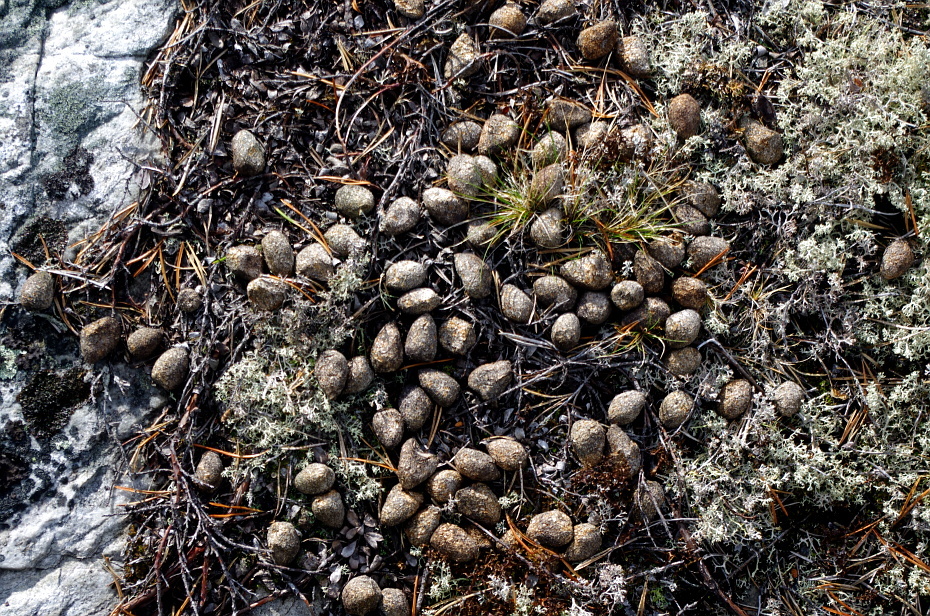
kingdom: Animalia
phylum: Chordata
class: Mammalia
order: Artiodactyla
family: Cervidae
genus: Alces
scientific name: Alces alces
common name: Moose
